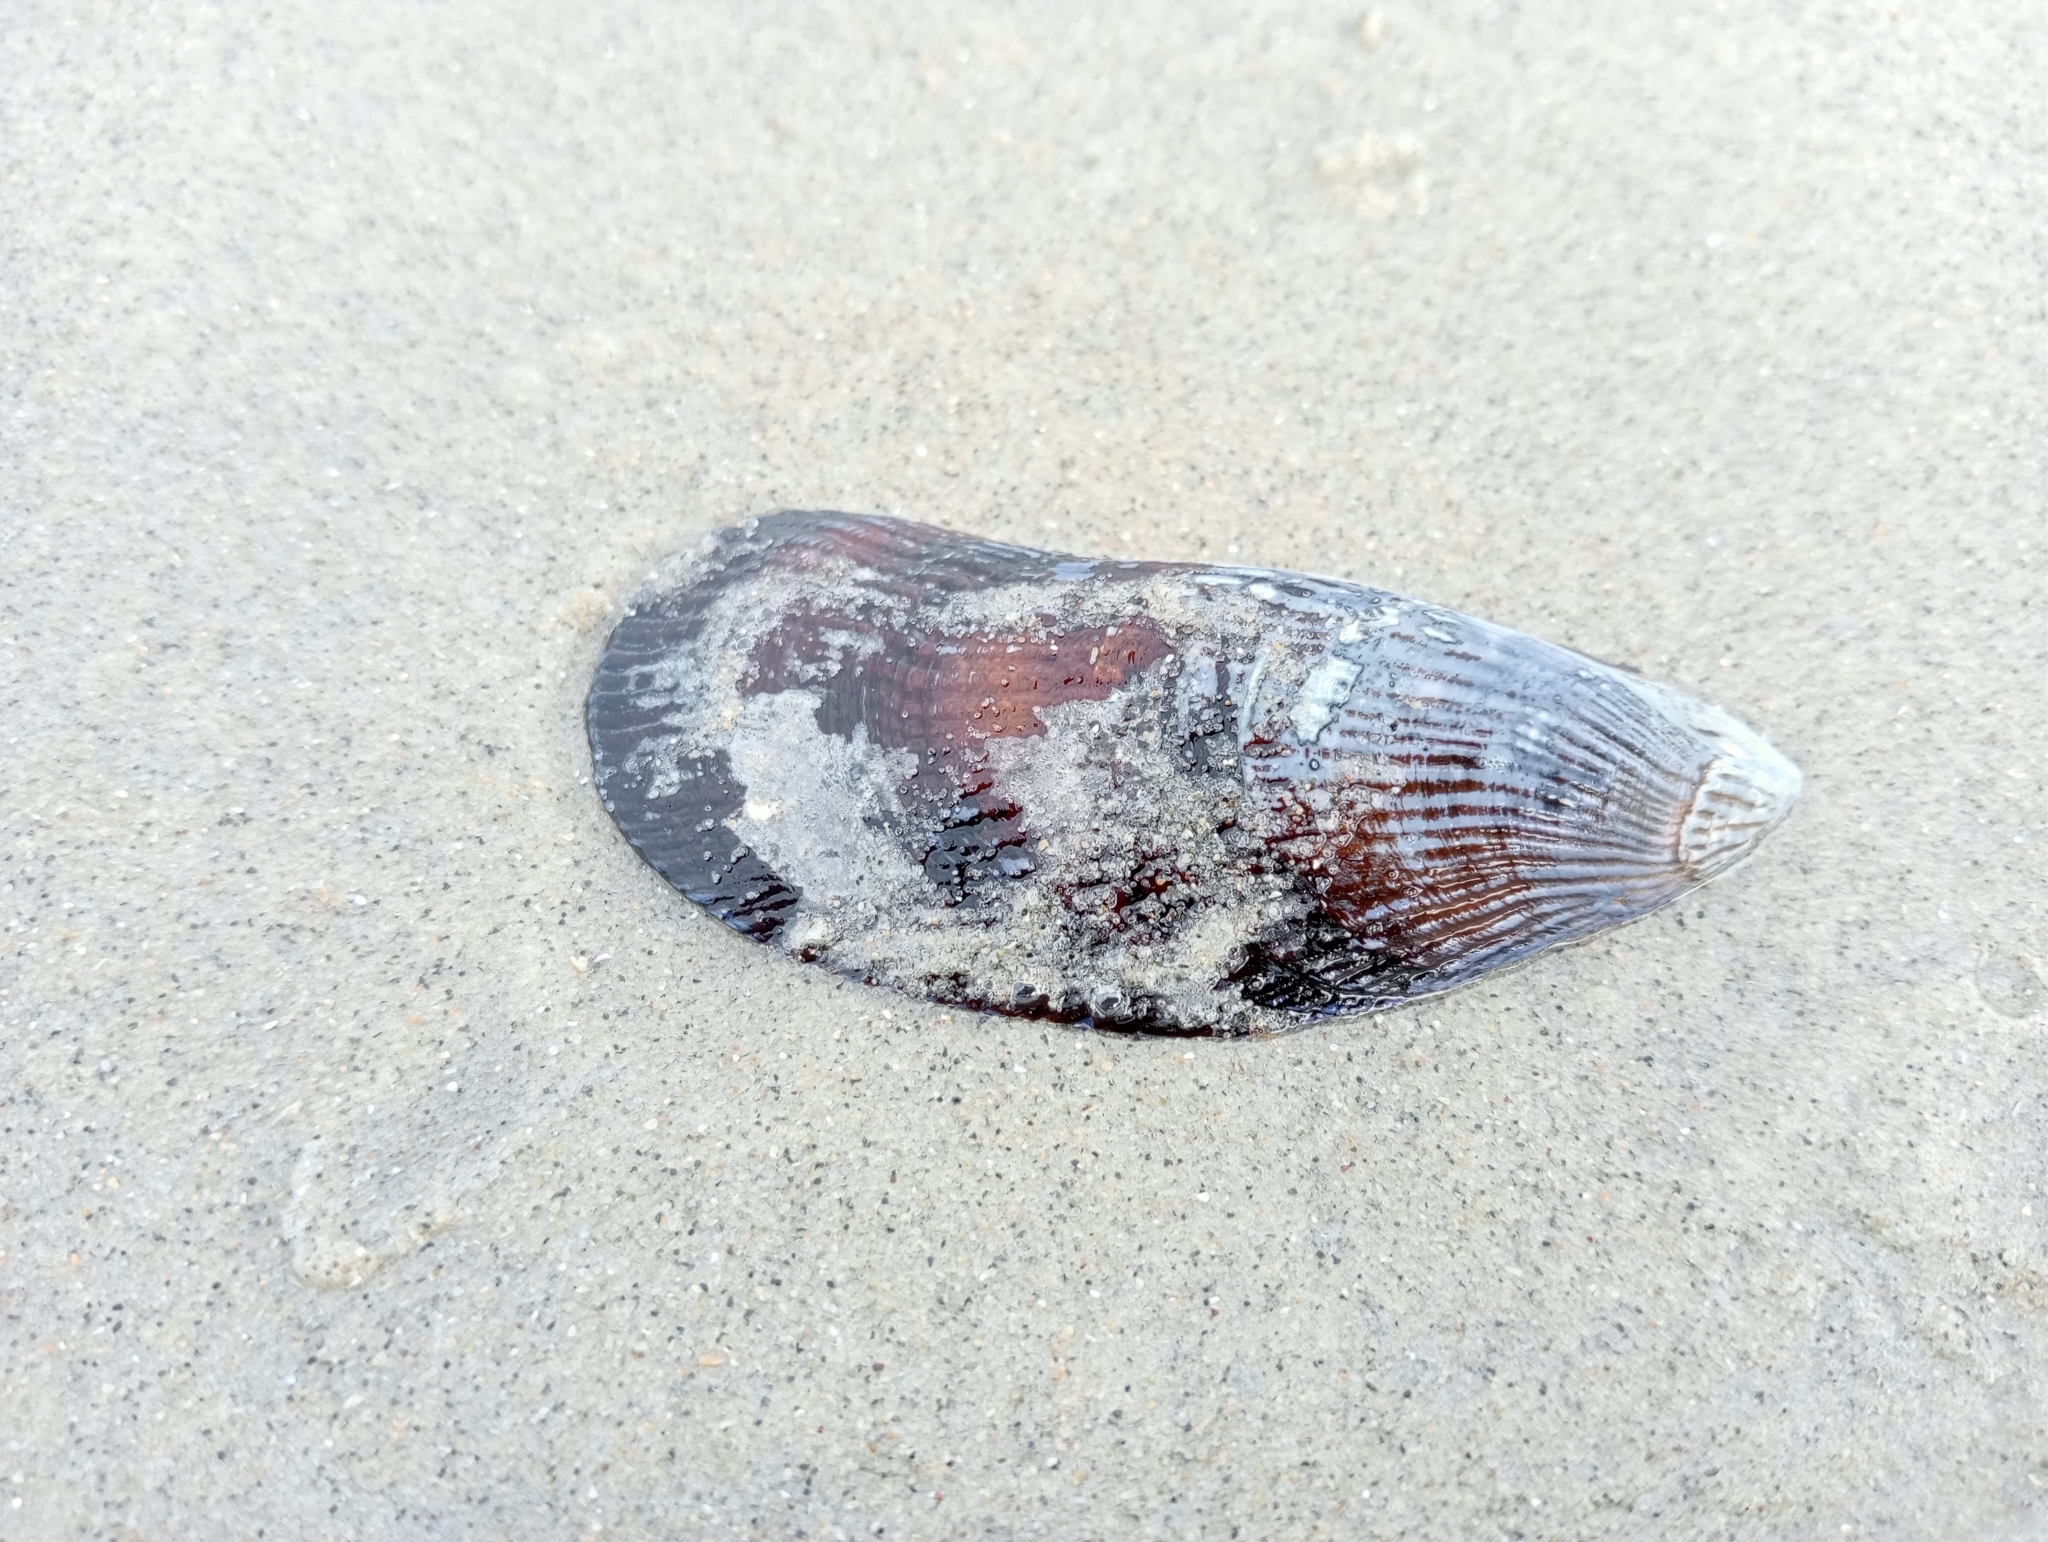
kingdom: Animalia
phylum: Mollusca
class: Bivalvia
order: Mytilida
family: Mytilidae
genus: Aulacomya
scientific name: Aulacomya maoriana
